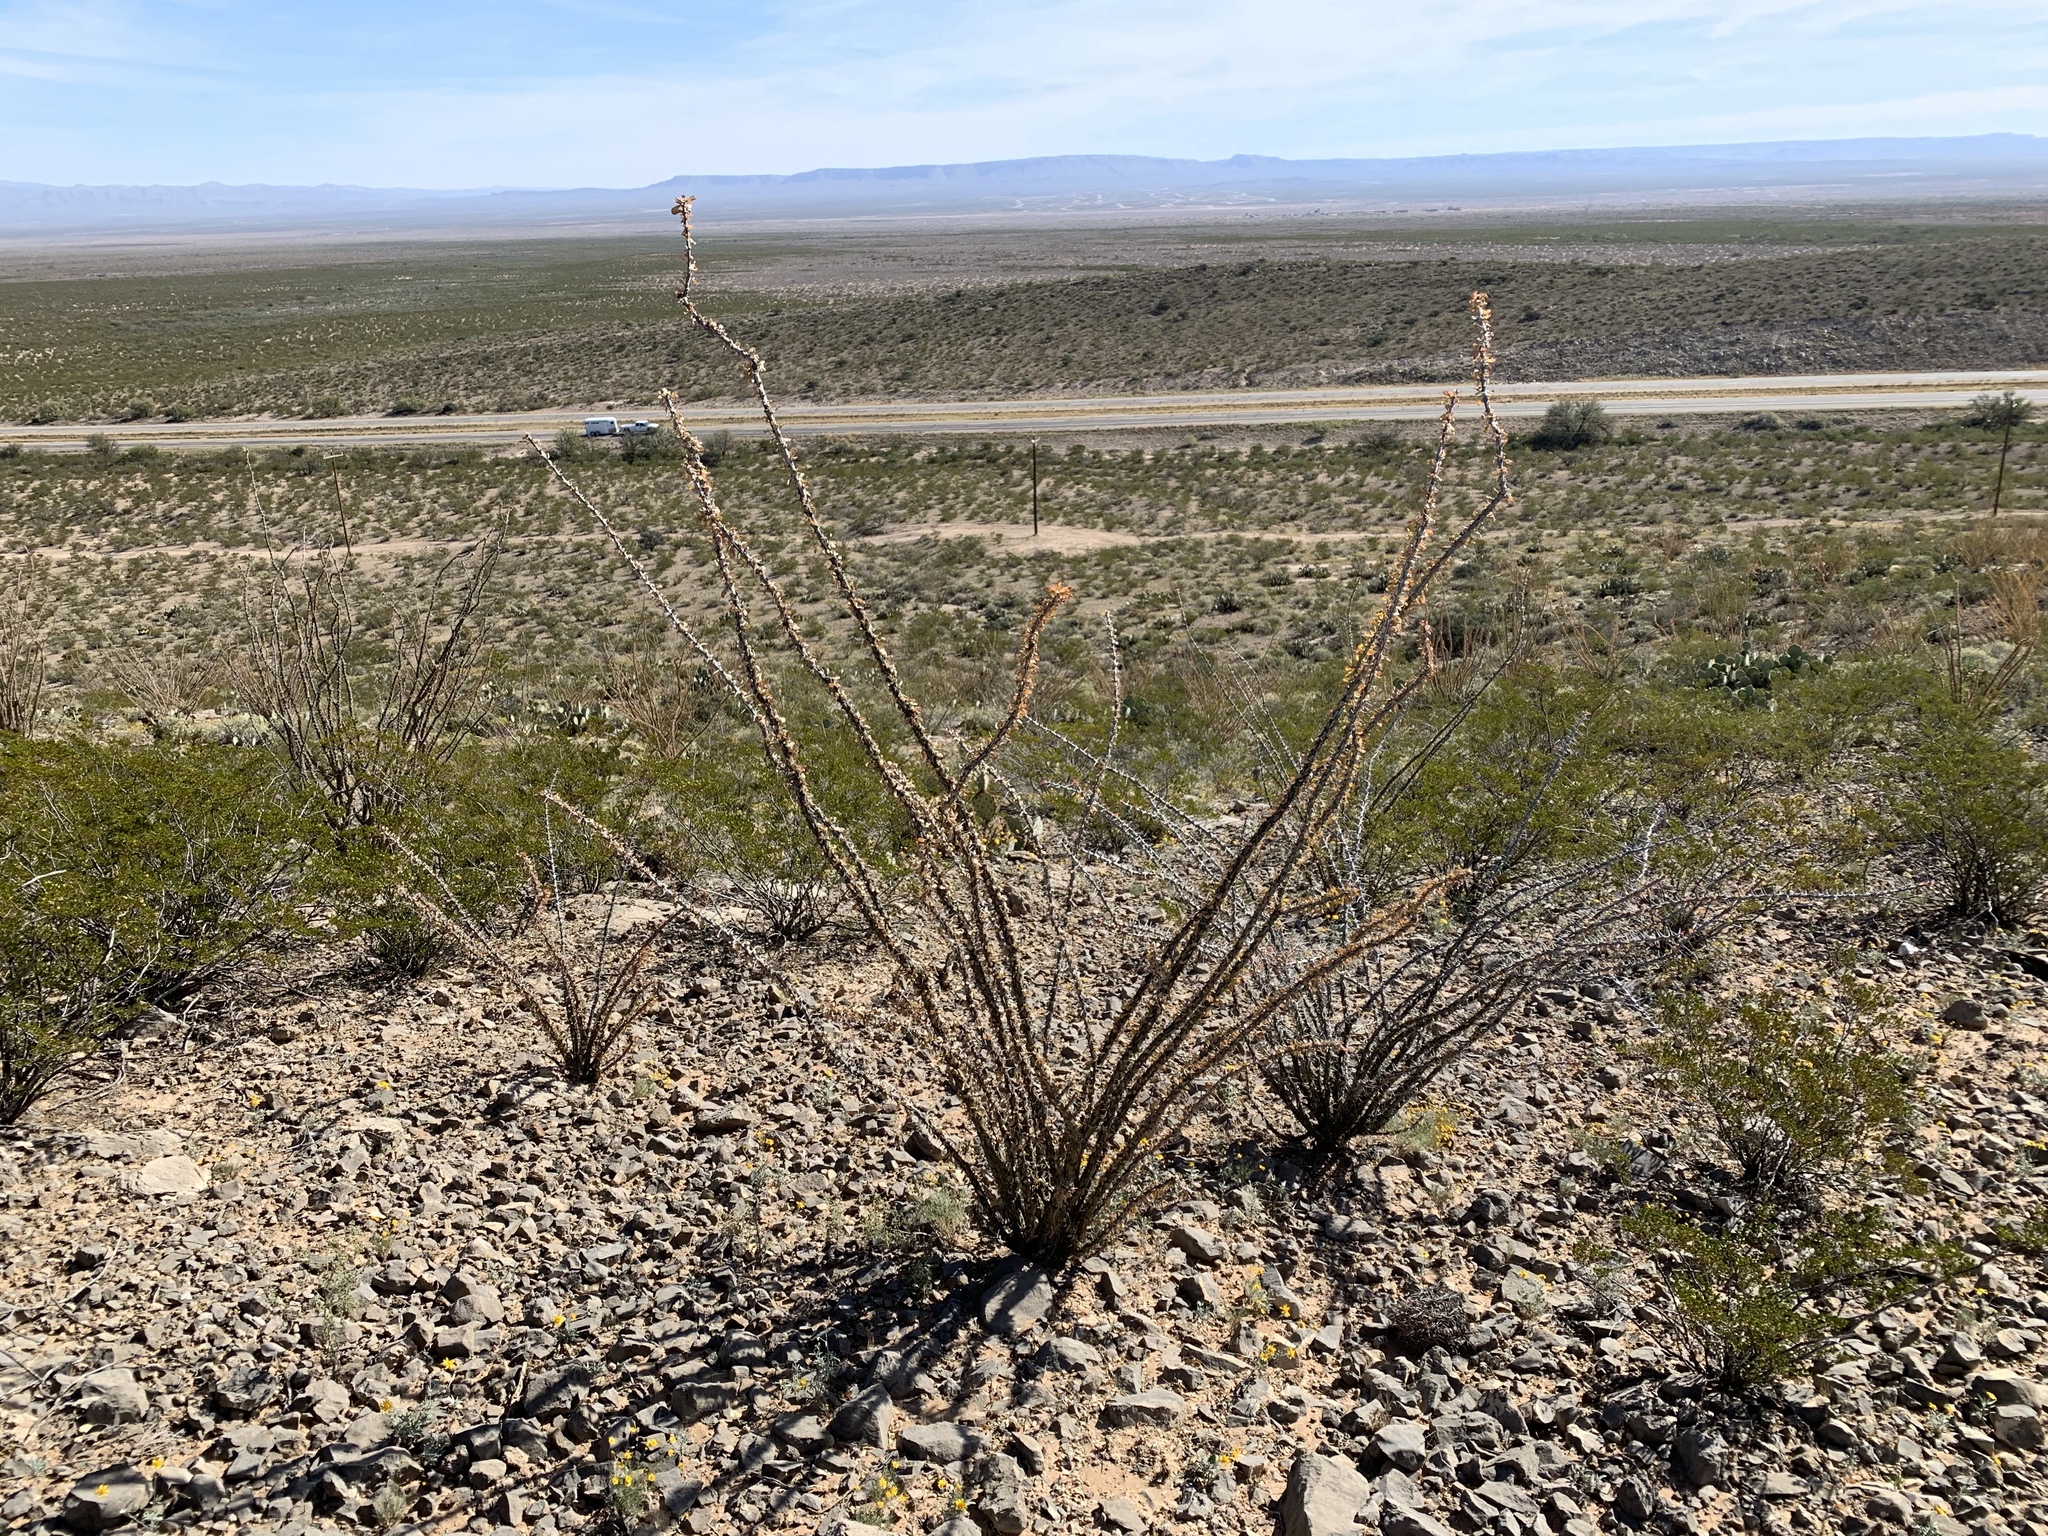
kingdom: Plantae
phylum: Tracheophyta
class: Magnoliopsida
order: Ericales
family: Fouquieriaceae
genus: Fouquieria
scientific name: Fouquieria splendens
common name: Vine-cactus
